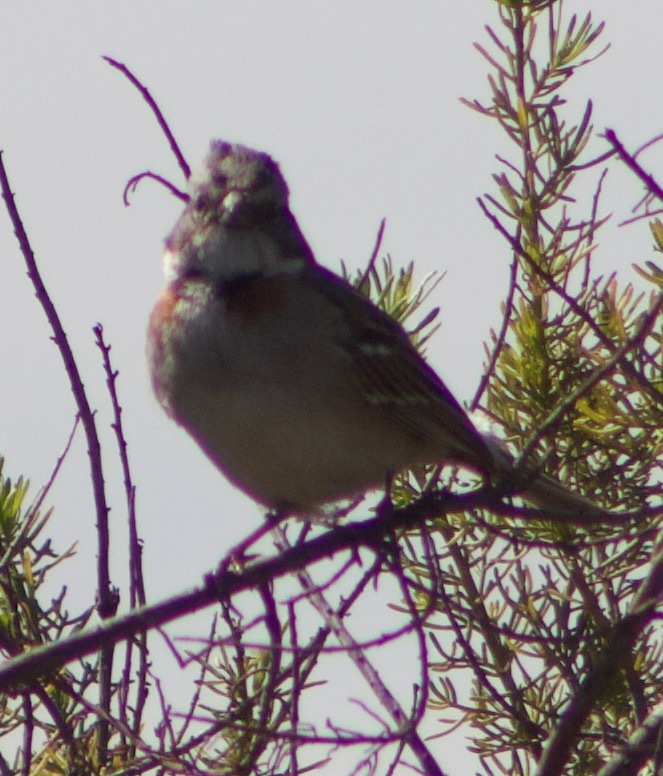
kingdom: Animalia
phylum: Chordata
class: Aves
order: Passeriformes
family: Passerellidae
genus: Zonotrichia
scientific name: Zonotrichia capensis
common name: Rufous-collared sparrow
